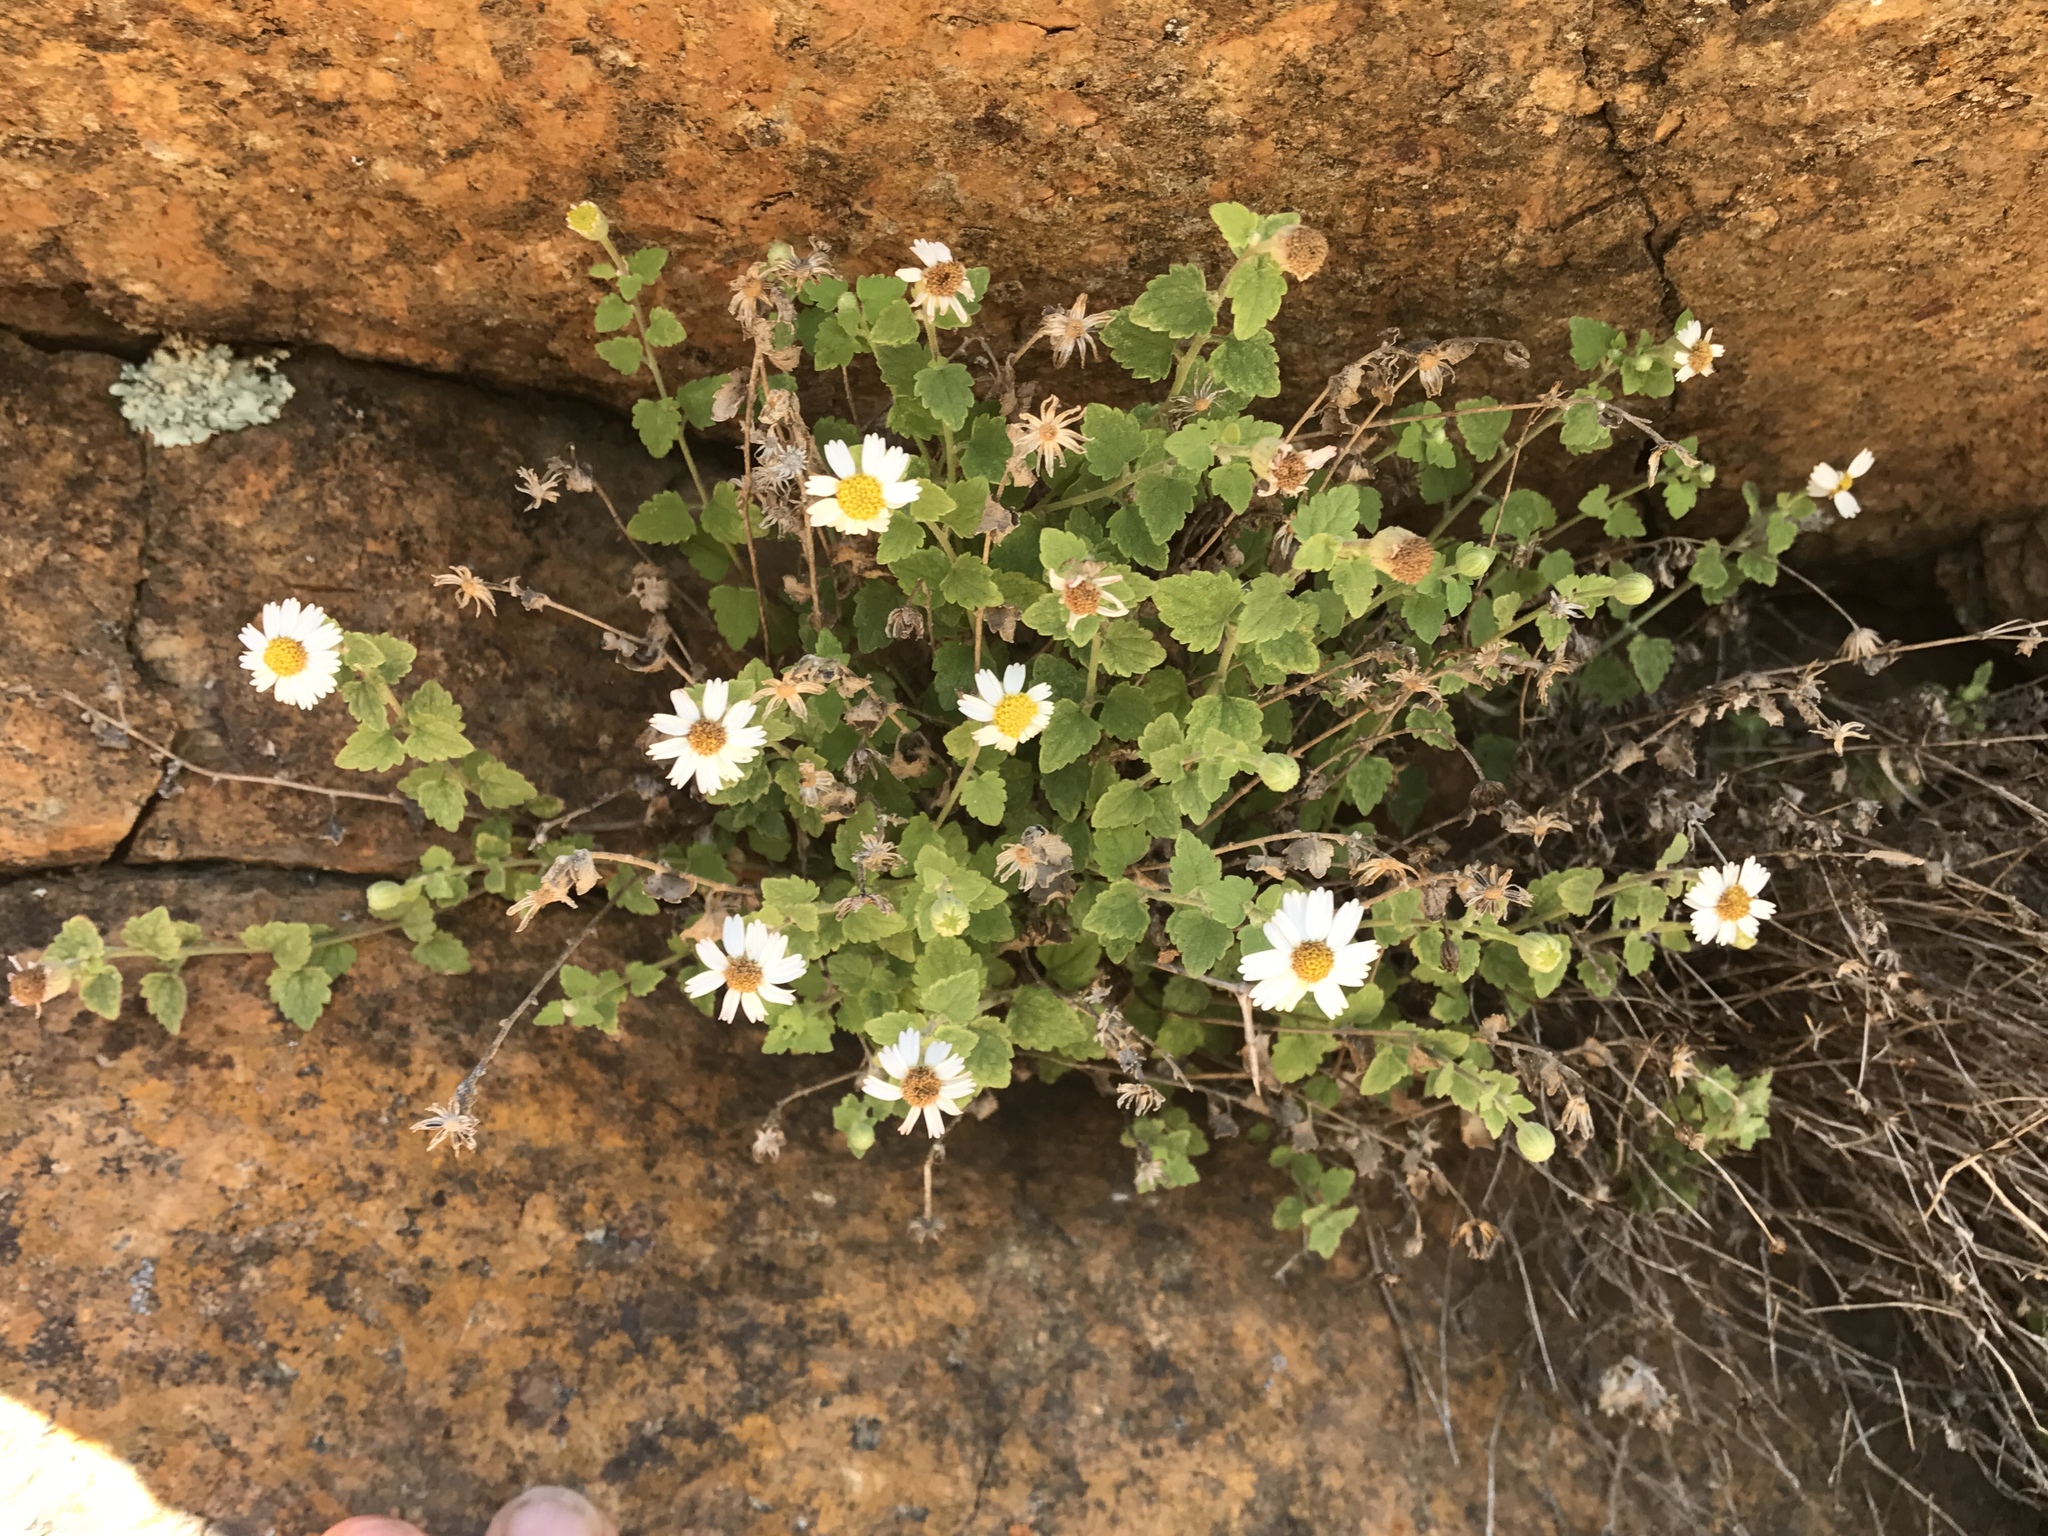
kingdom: Plantae
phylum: Tracheophyta
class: Magnoliopsida
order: Asterales
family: Asteraceae
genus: Laphamia
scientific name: Laphamia emoryi
